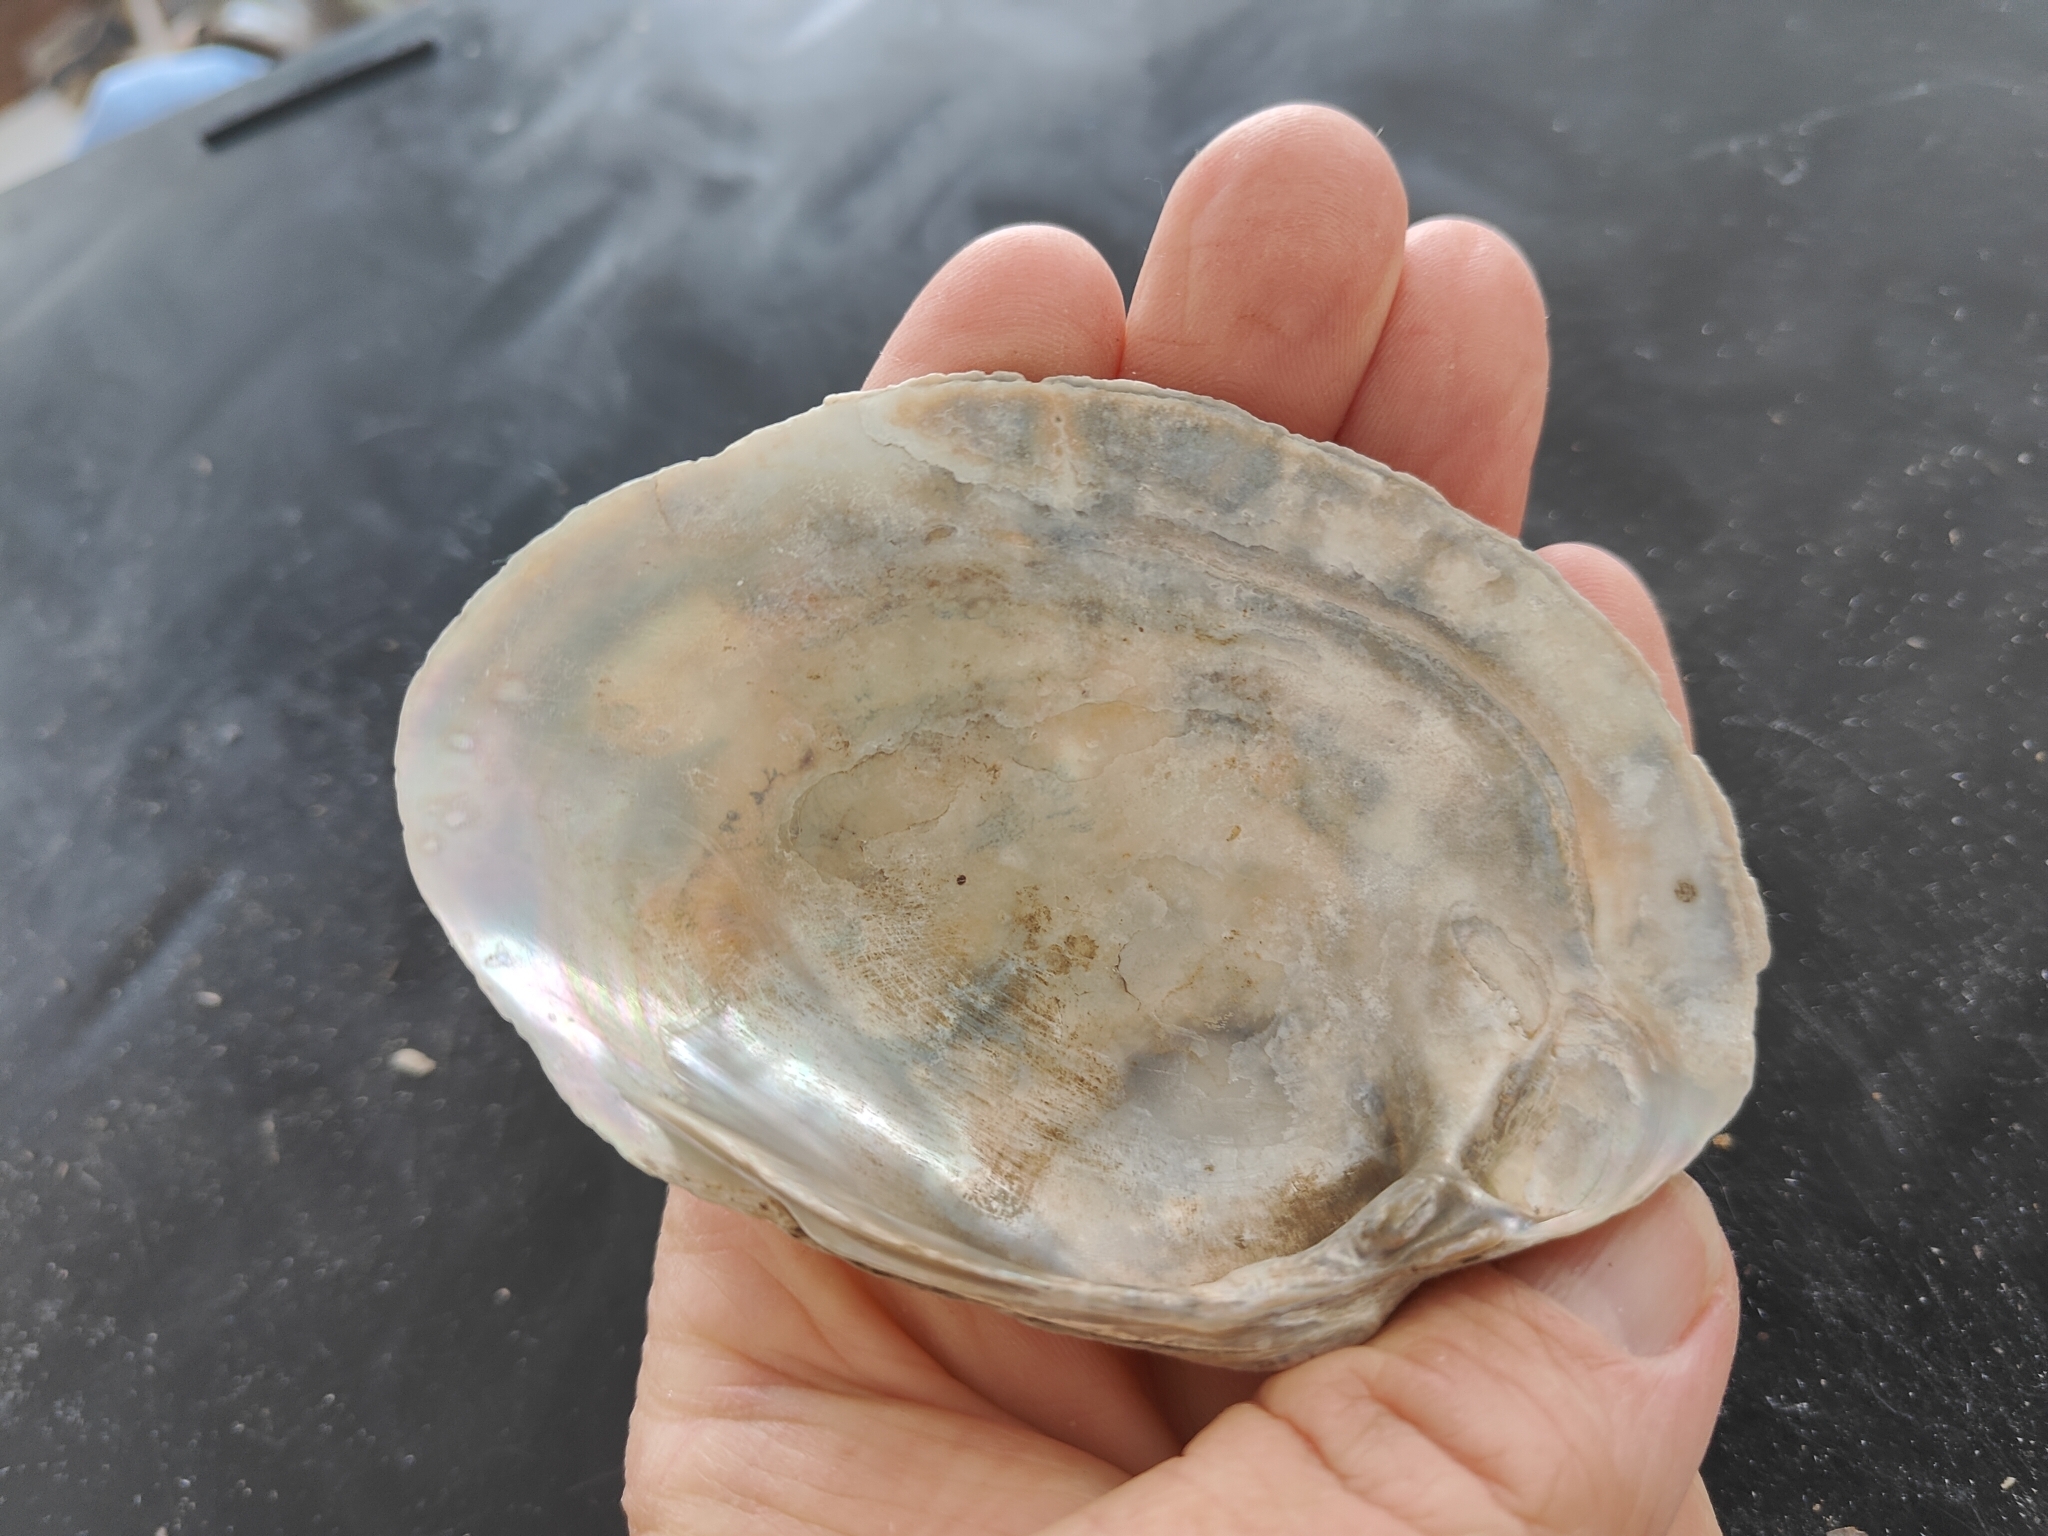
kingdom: Animalia
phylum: Mollusca
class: Bivalvia
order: Unionida
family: Unionidae
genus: Lampsilis
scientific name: Lampsilis cardium
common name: Plain pocketbook
